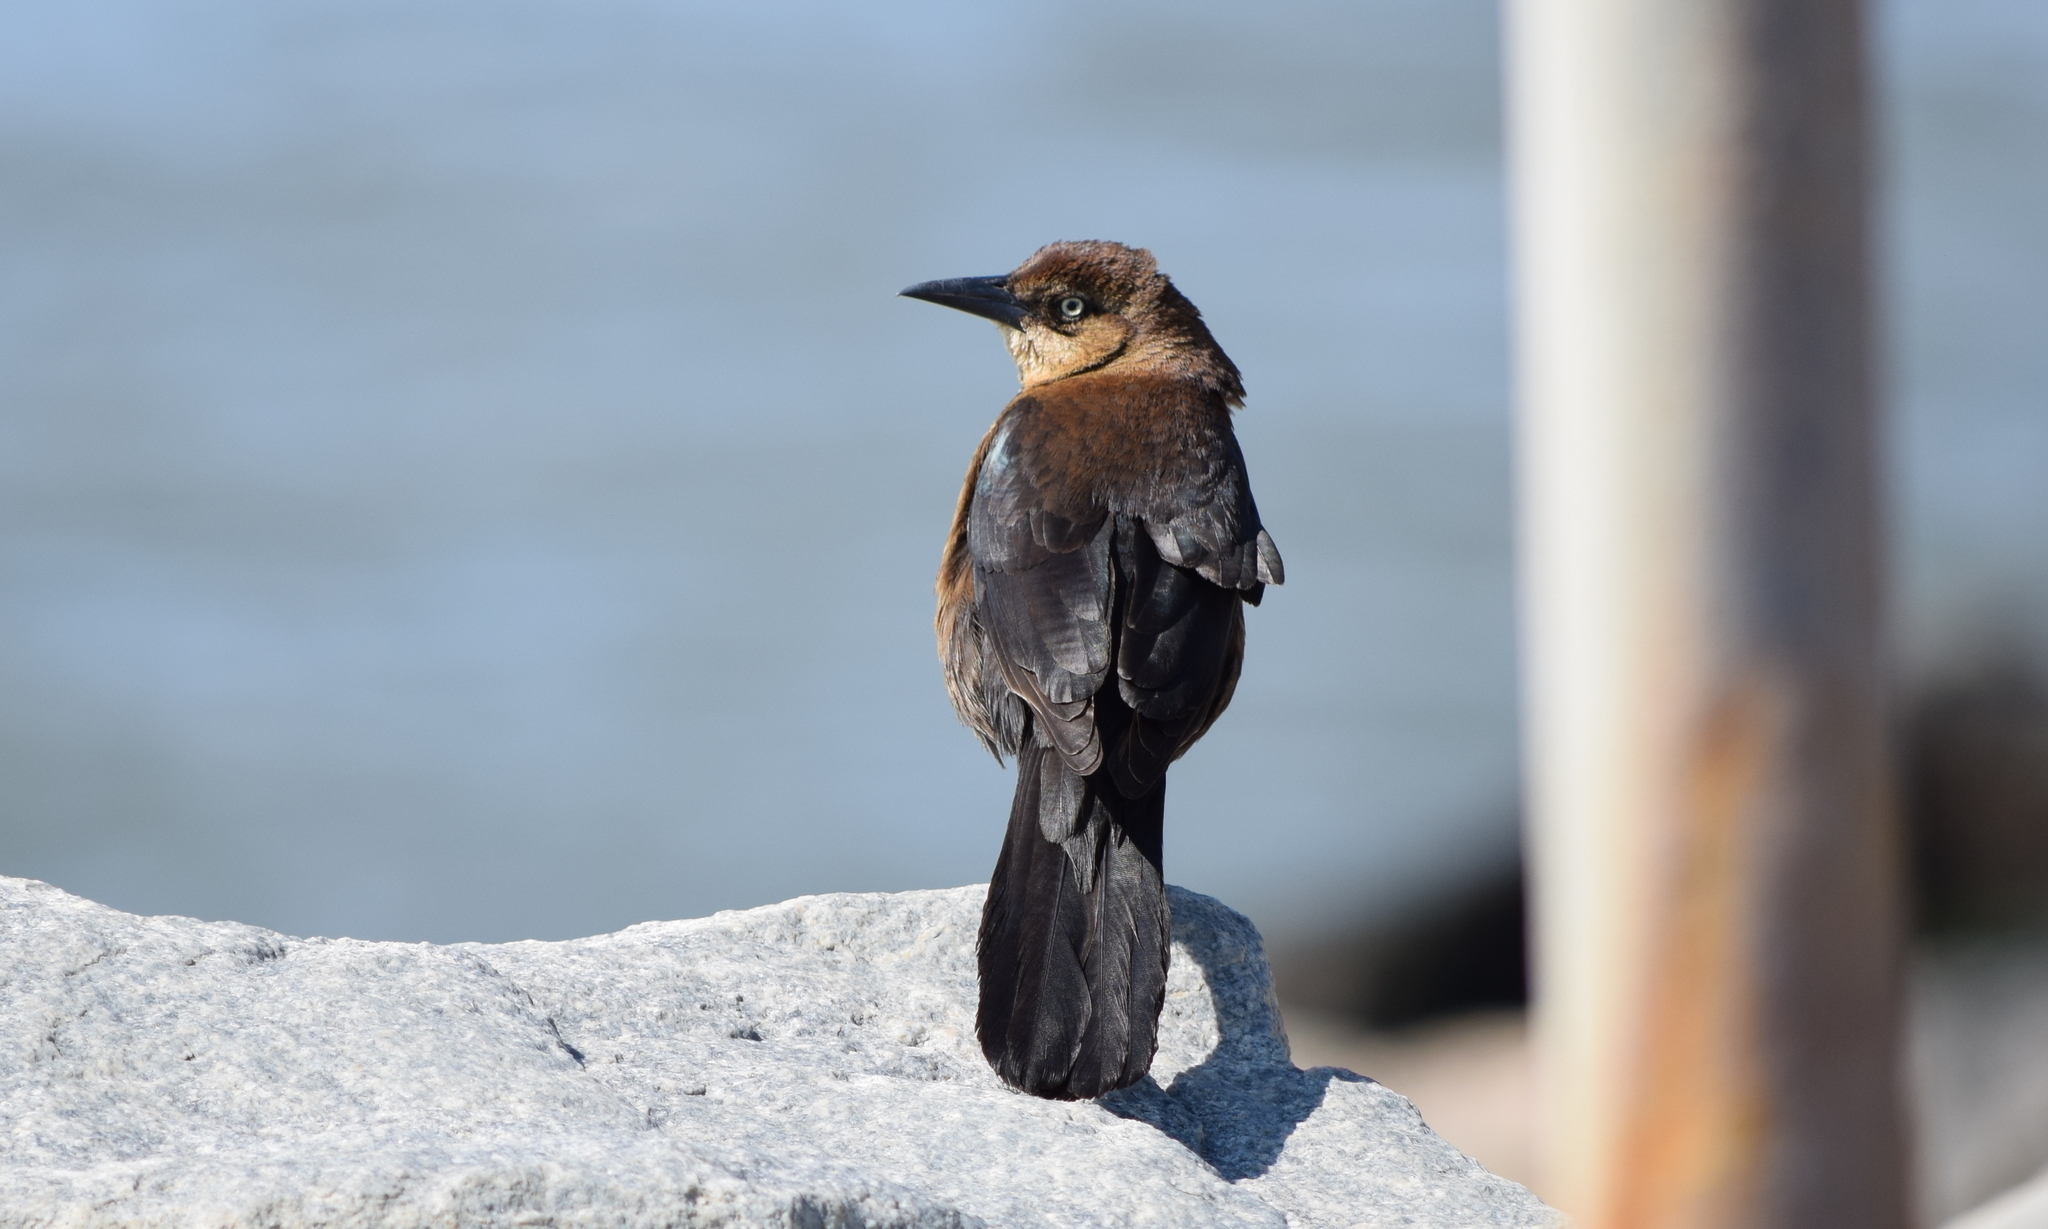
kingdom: Animalia
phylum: Chordata
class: Aves
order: Passeriformes
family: Icteridae
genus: Quiscalus
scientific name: Quiscalus major
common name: Boat-tailed grackle
